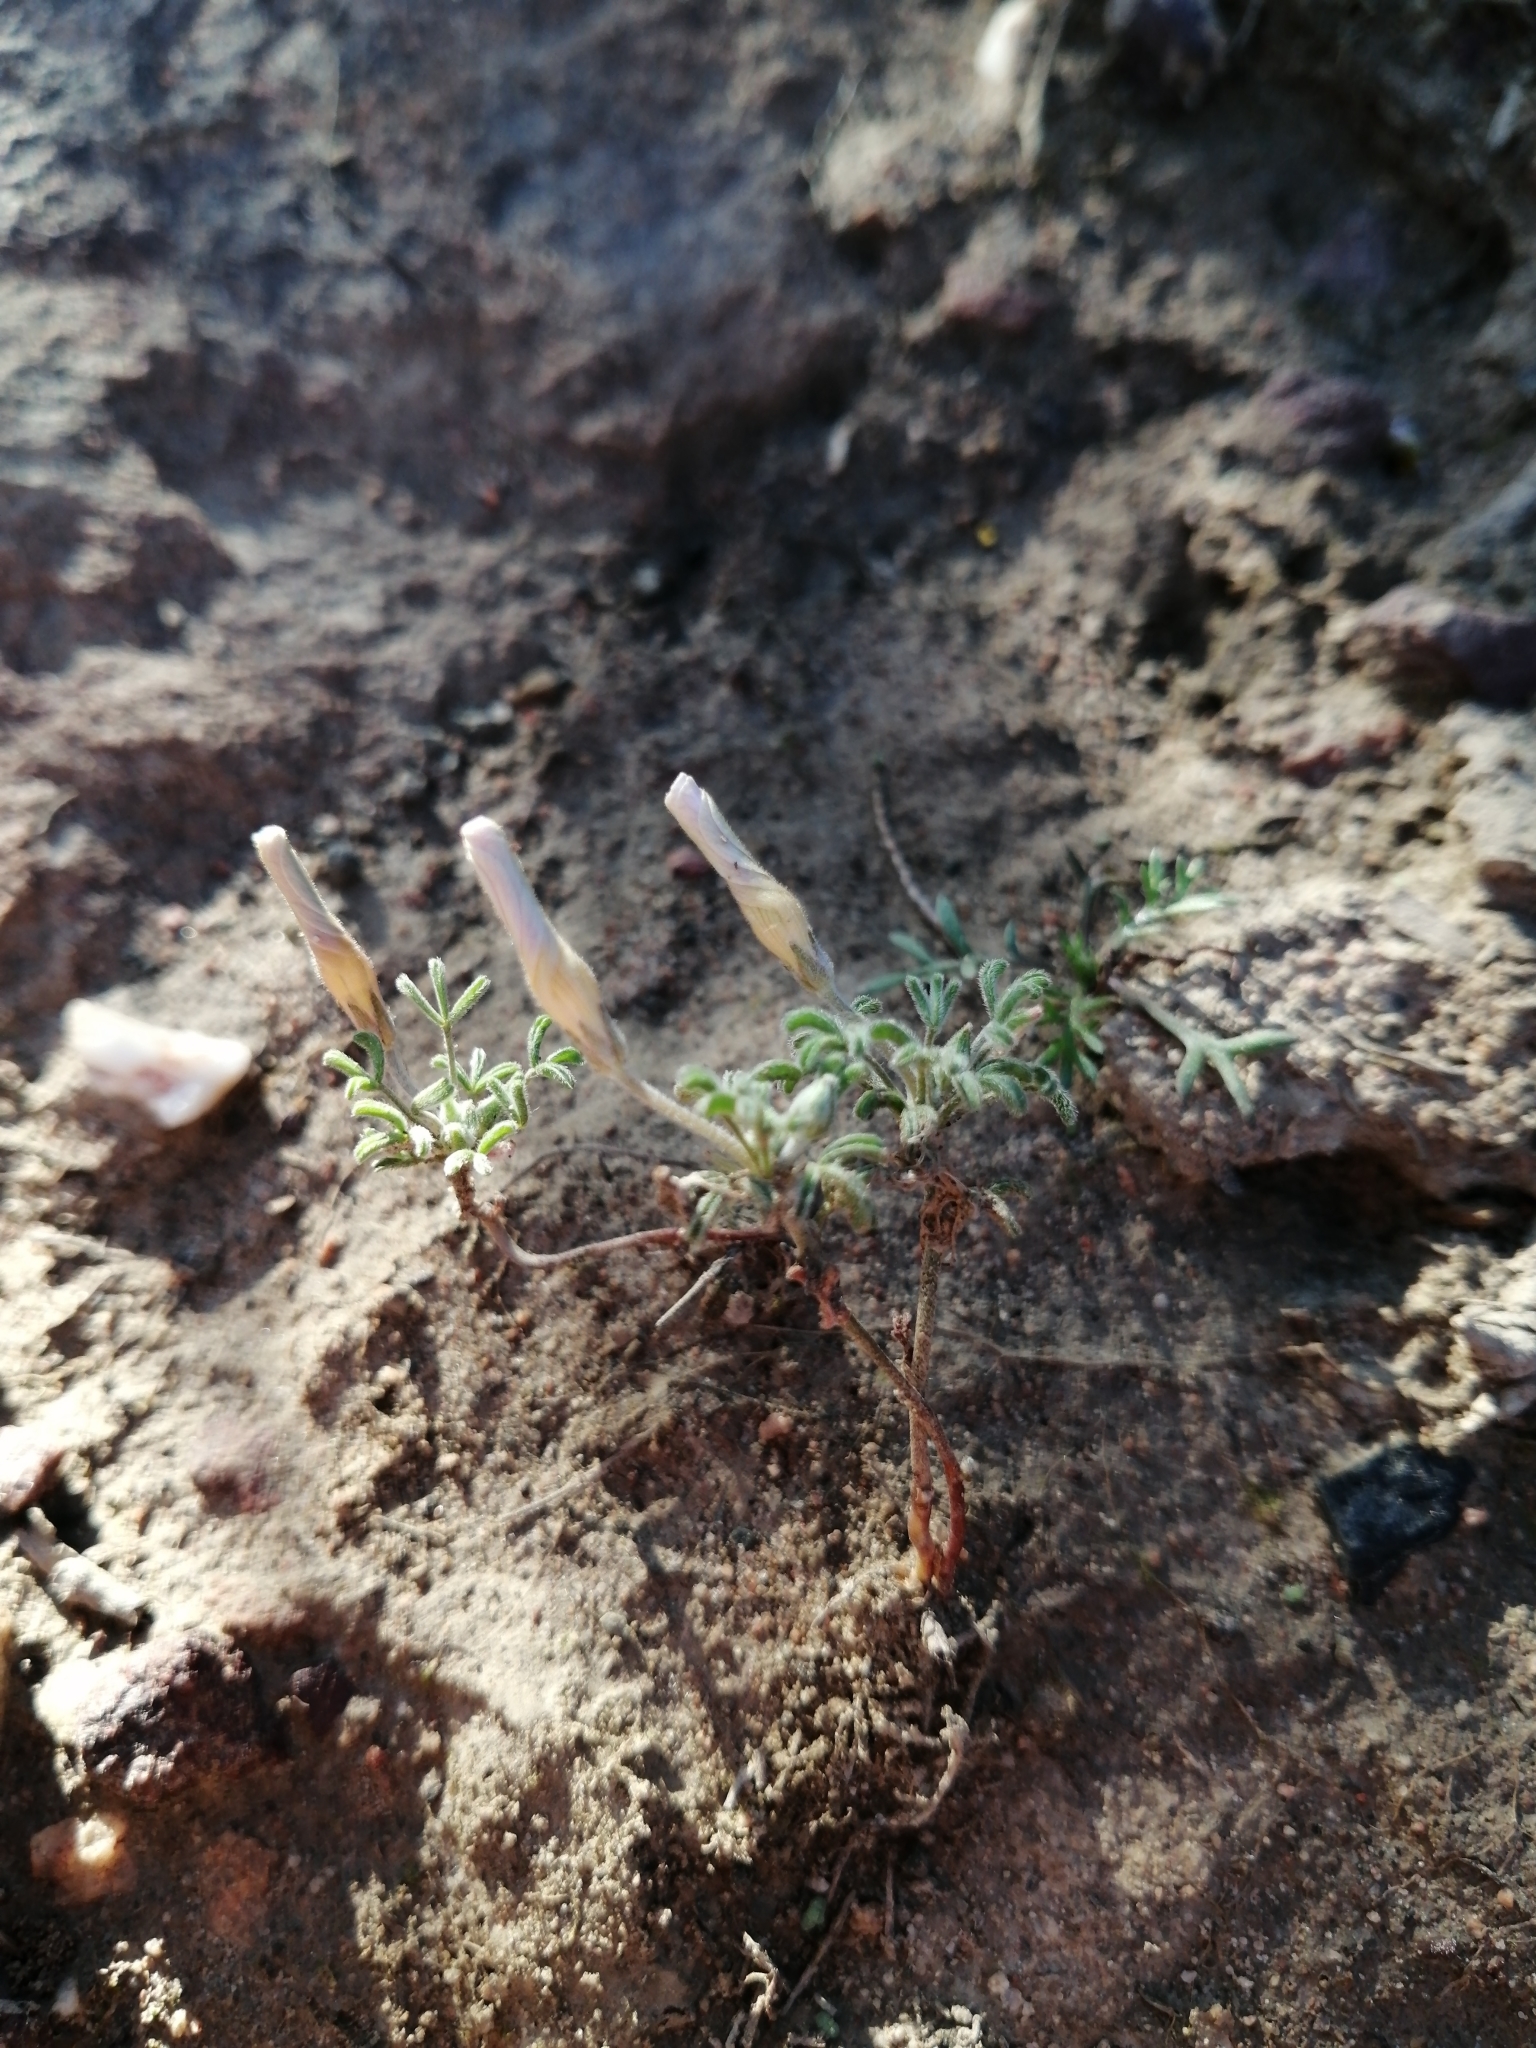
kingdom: Plantae
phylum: Tracheophyta
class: Magnoliopsida
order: Oxalidales
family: Oxalidaceae
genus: Oxalis
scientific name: Oxalis ciliaris
